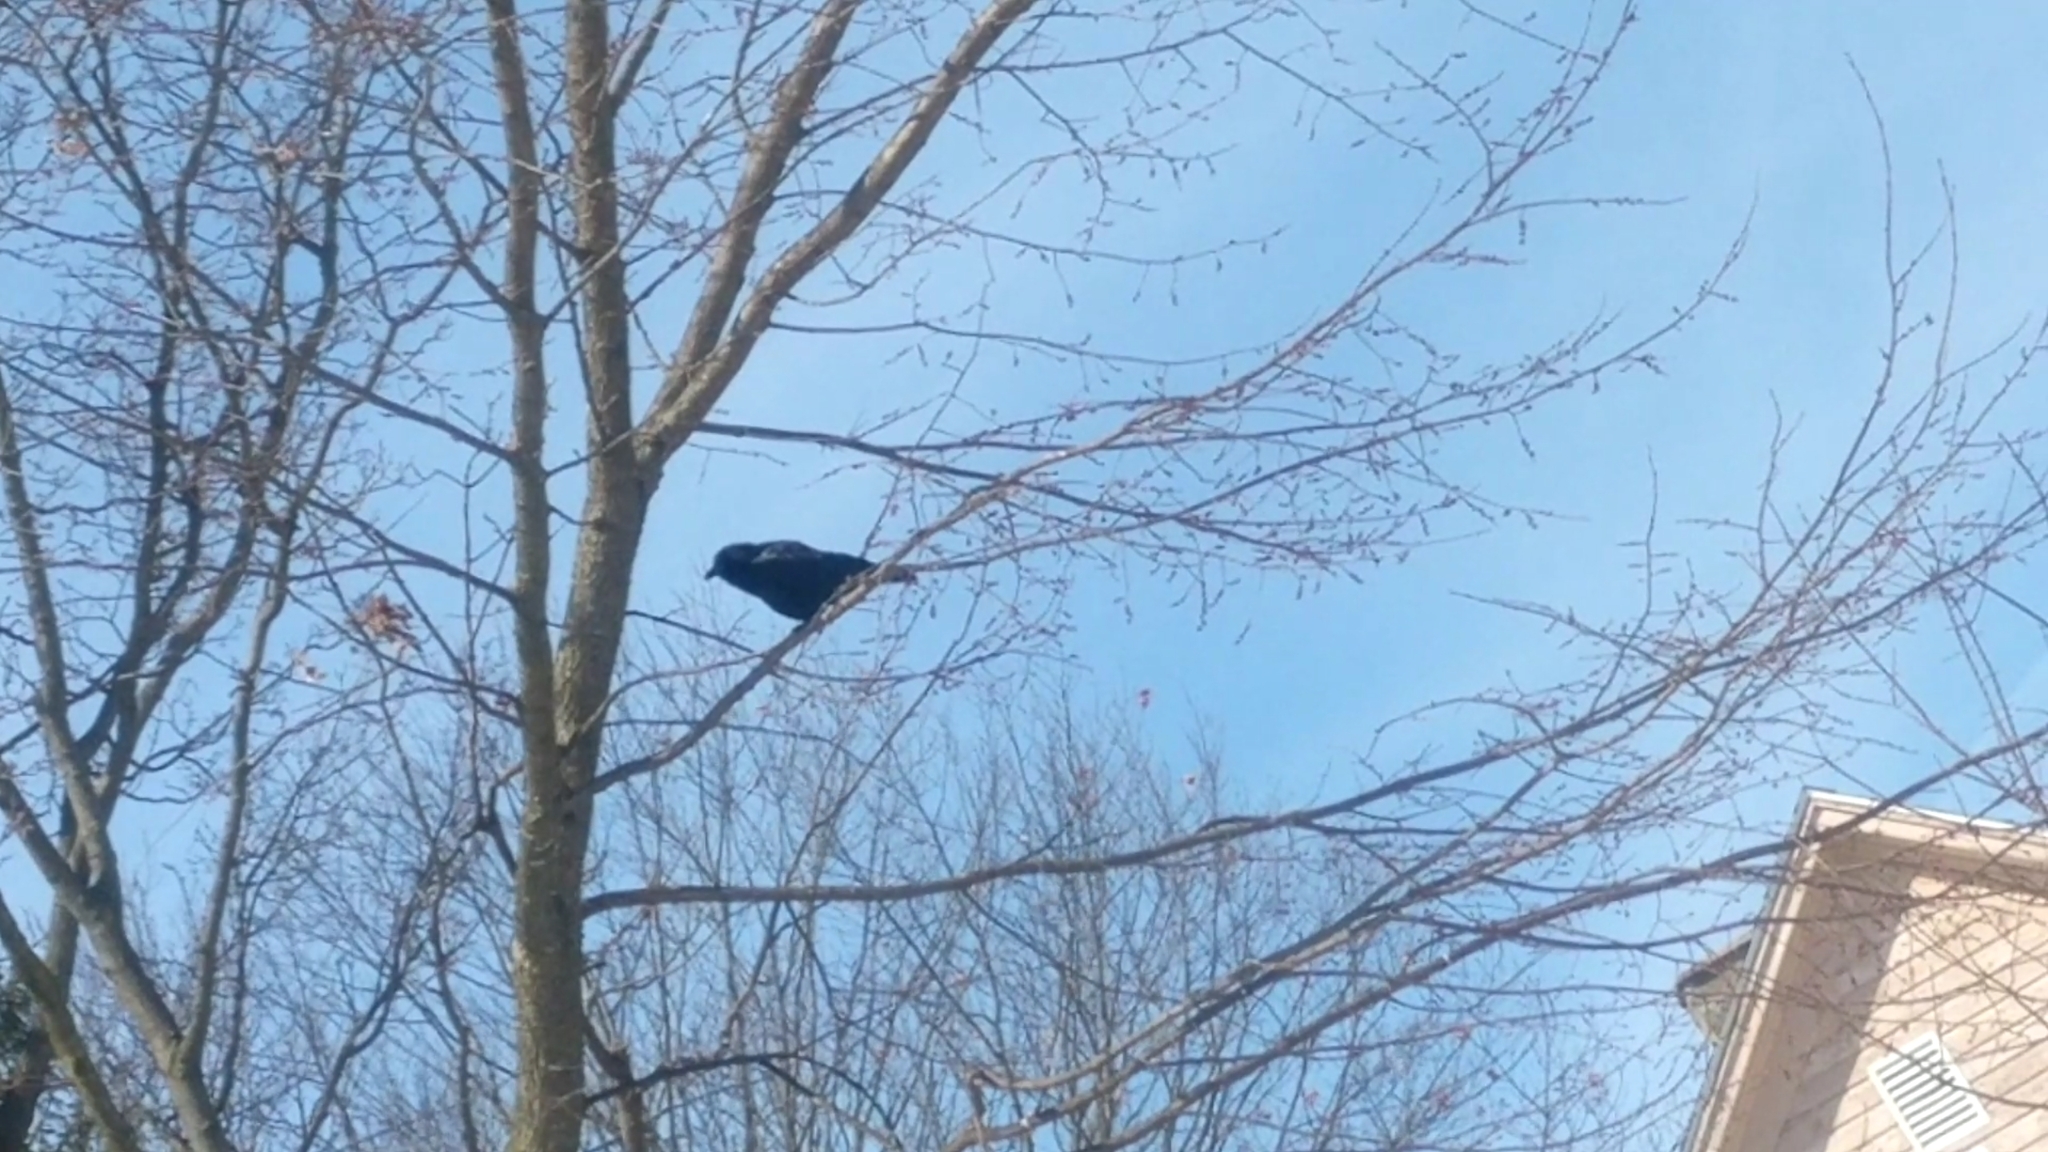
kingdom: Animalia
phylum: Chordata
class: Aves
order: Passeriformes
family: Corvidae
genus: Corvus
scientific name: Corvus brachyrhynchos
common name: American crow
